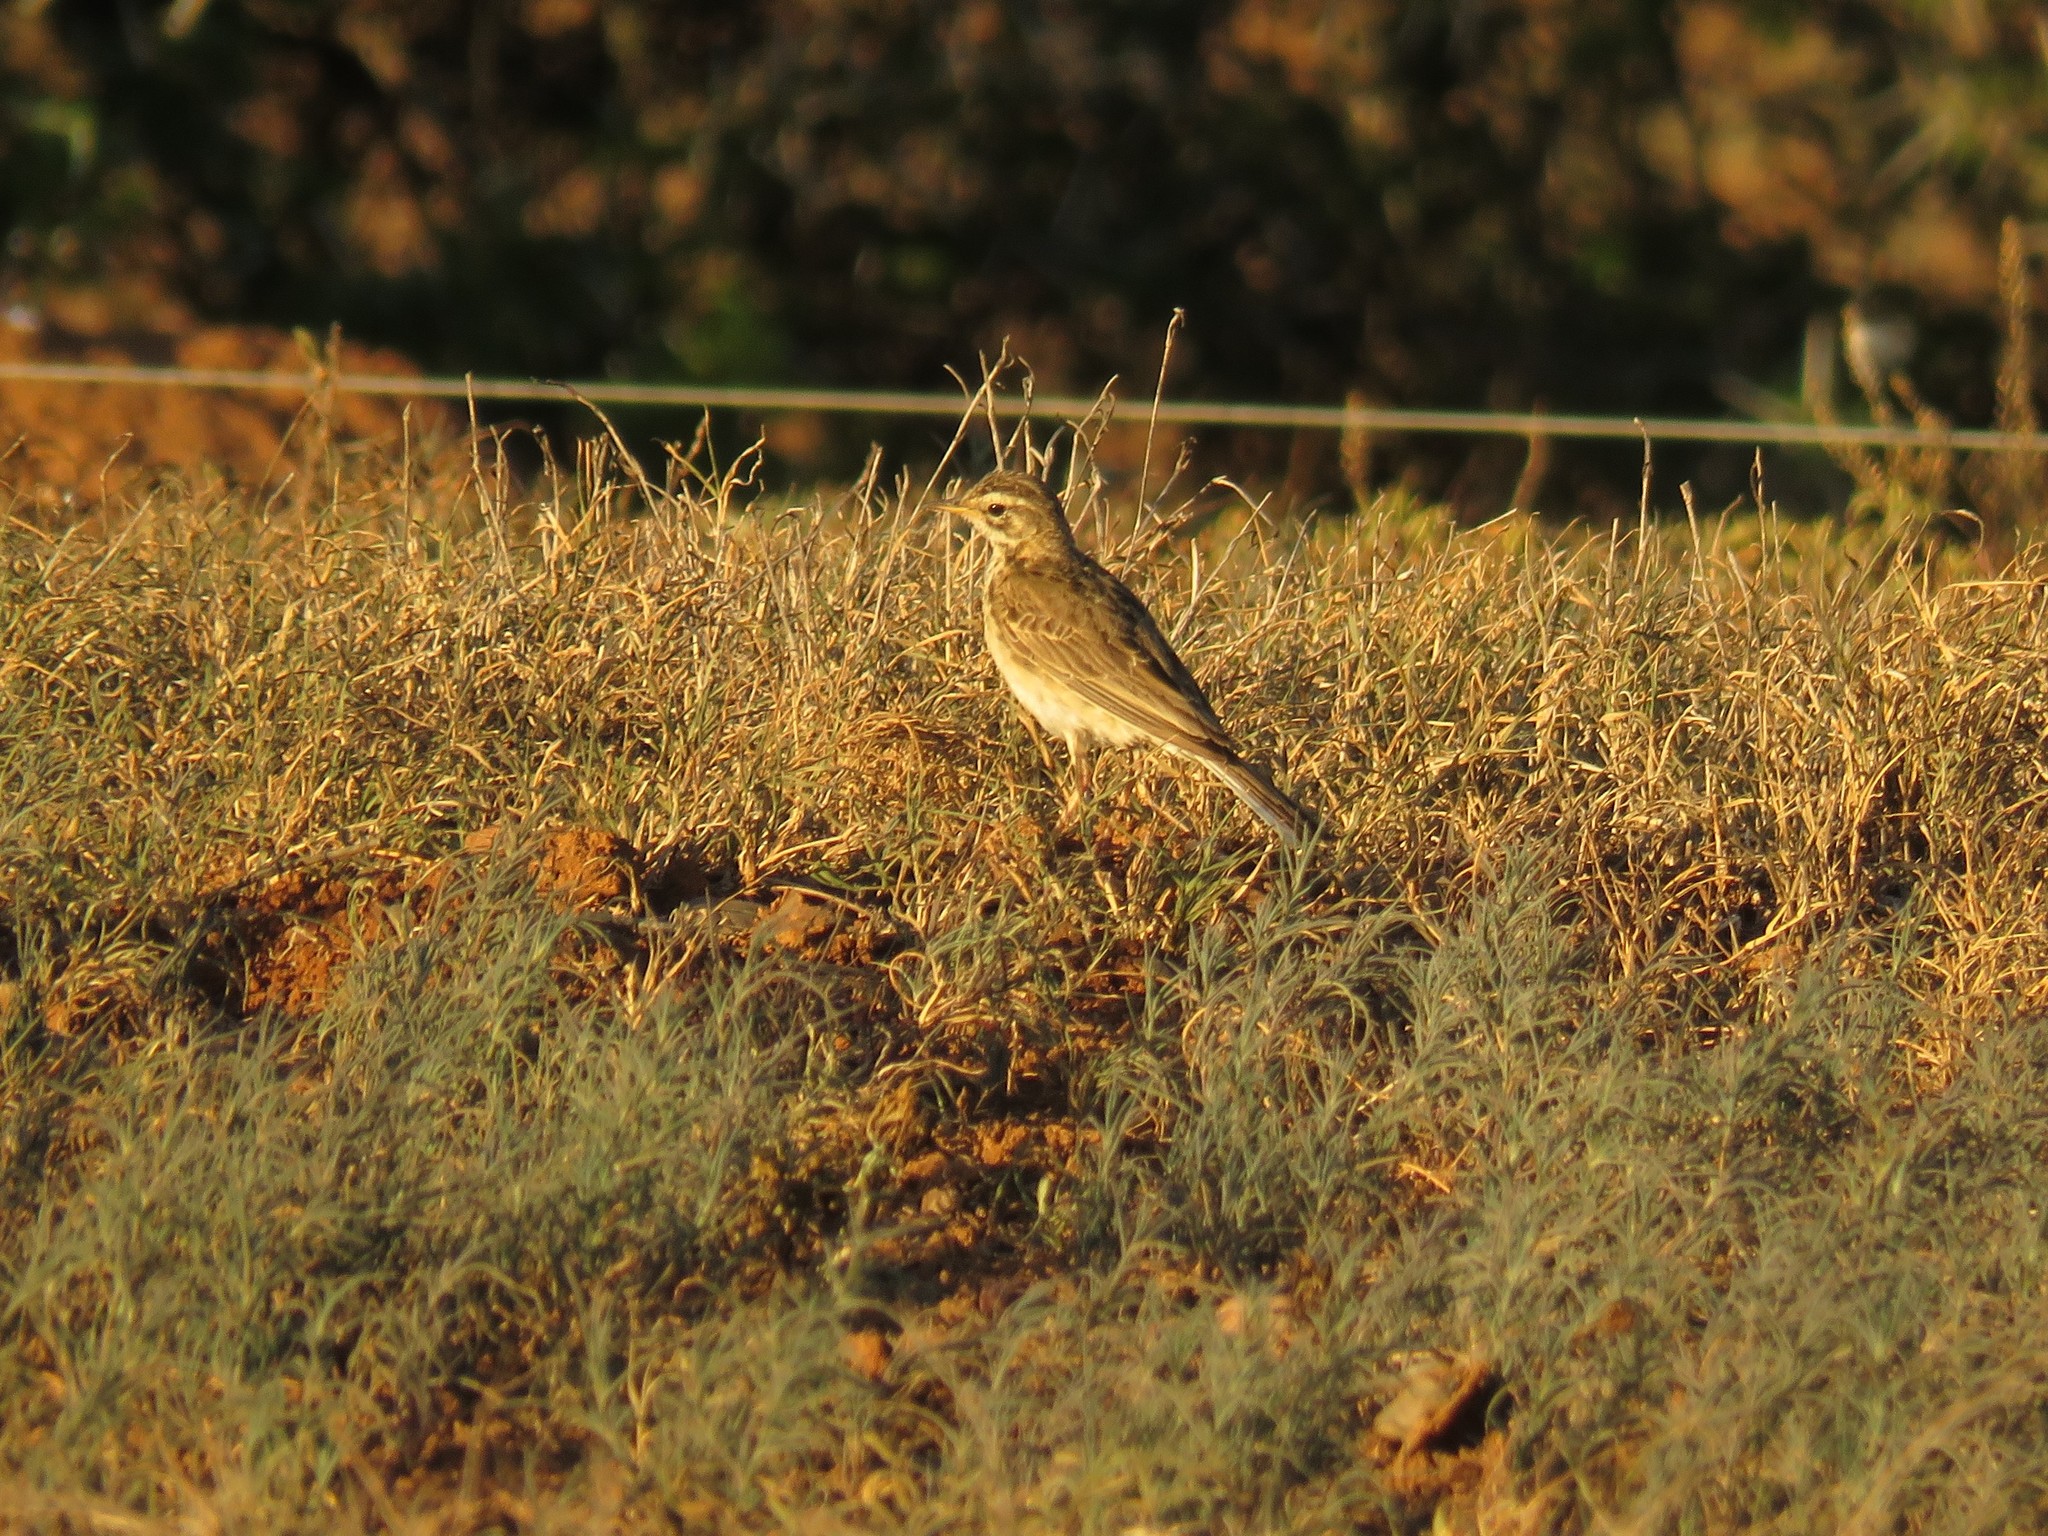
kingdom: Animalia
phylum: Chordata
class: Aves
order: Passeriformes
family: Motacillidae
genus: Anthus
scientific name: Anthus cinnamomeus
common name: African pipit
